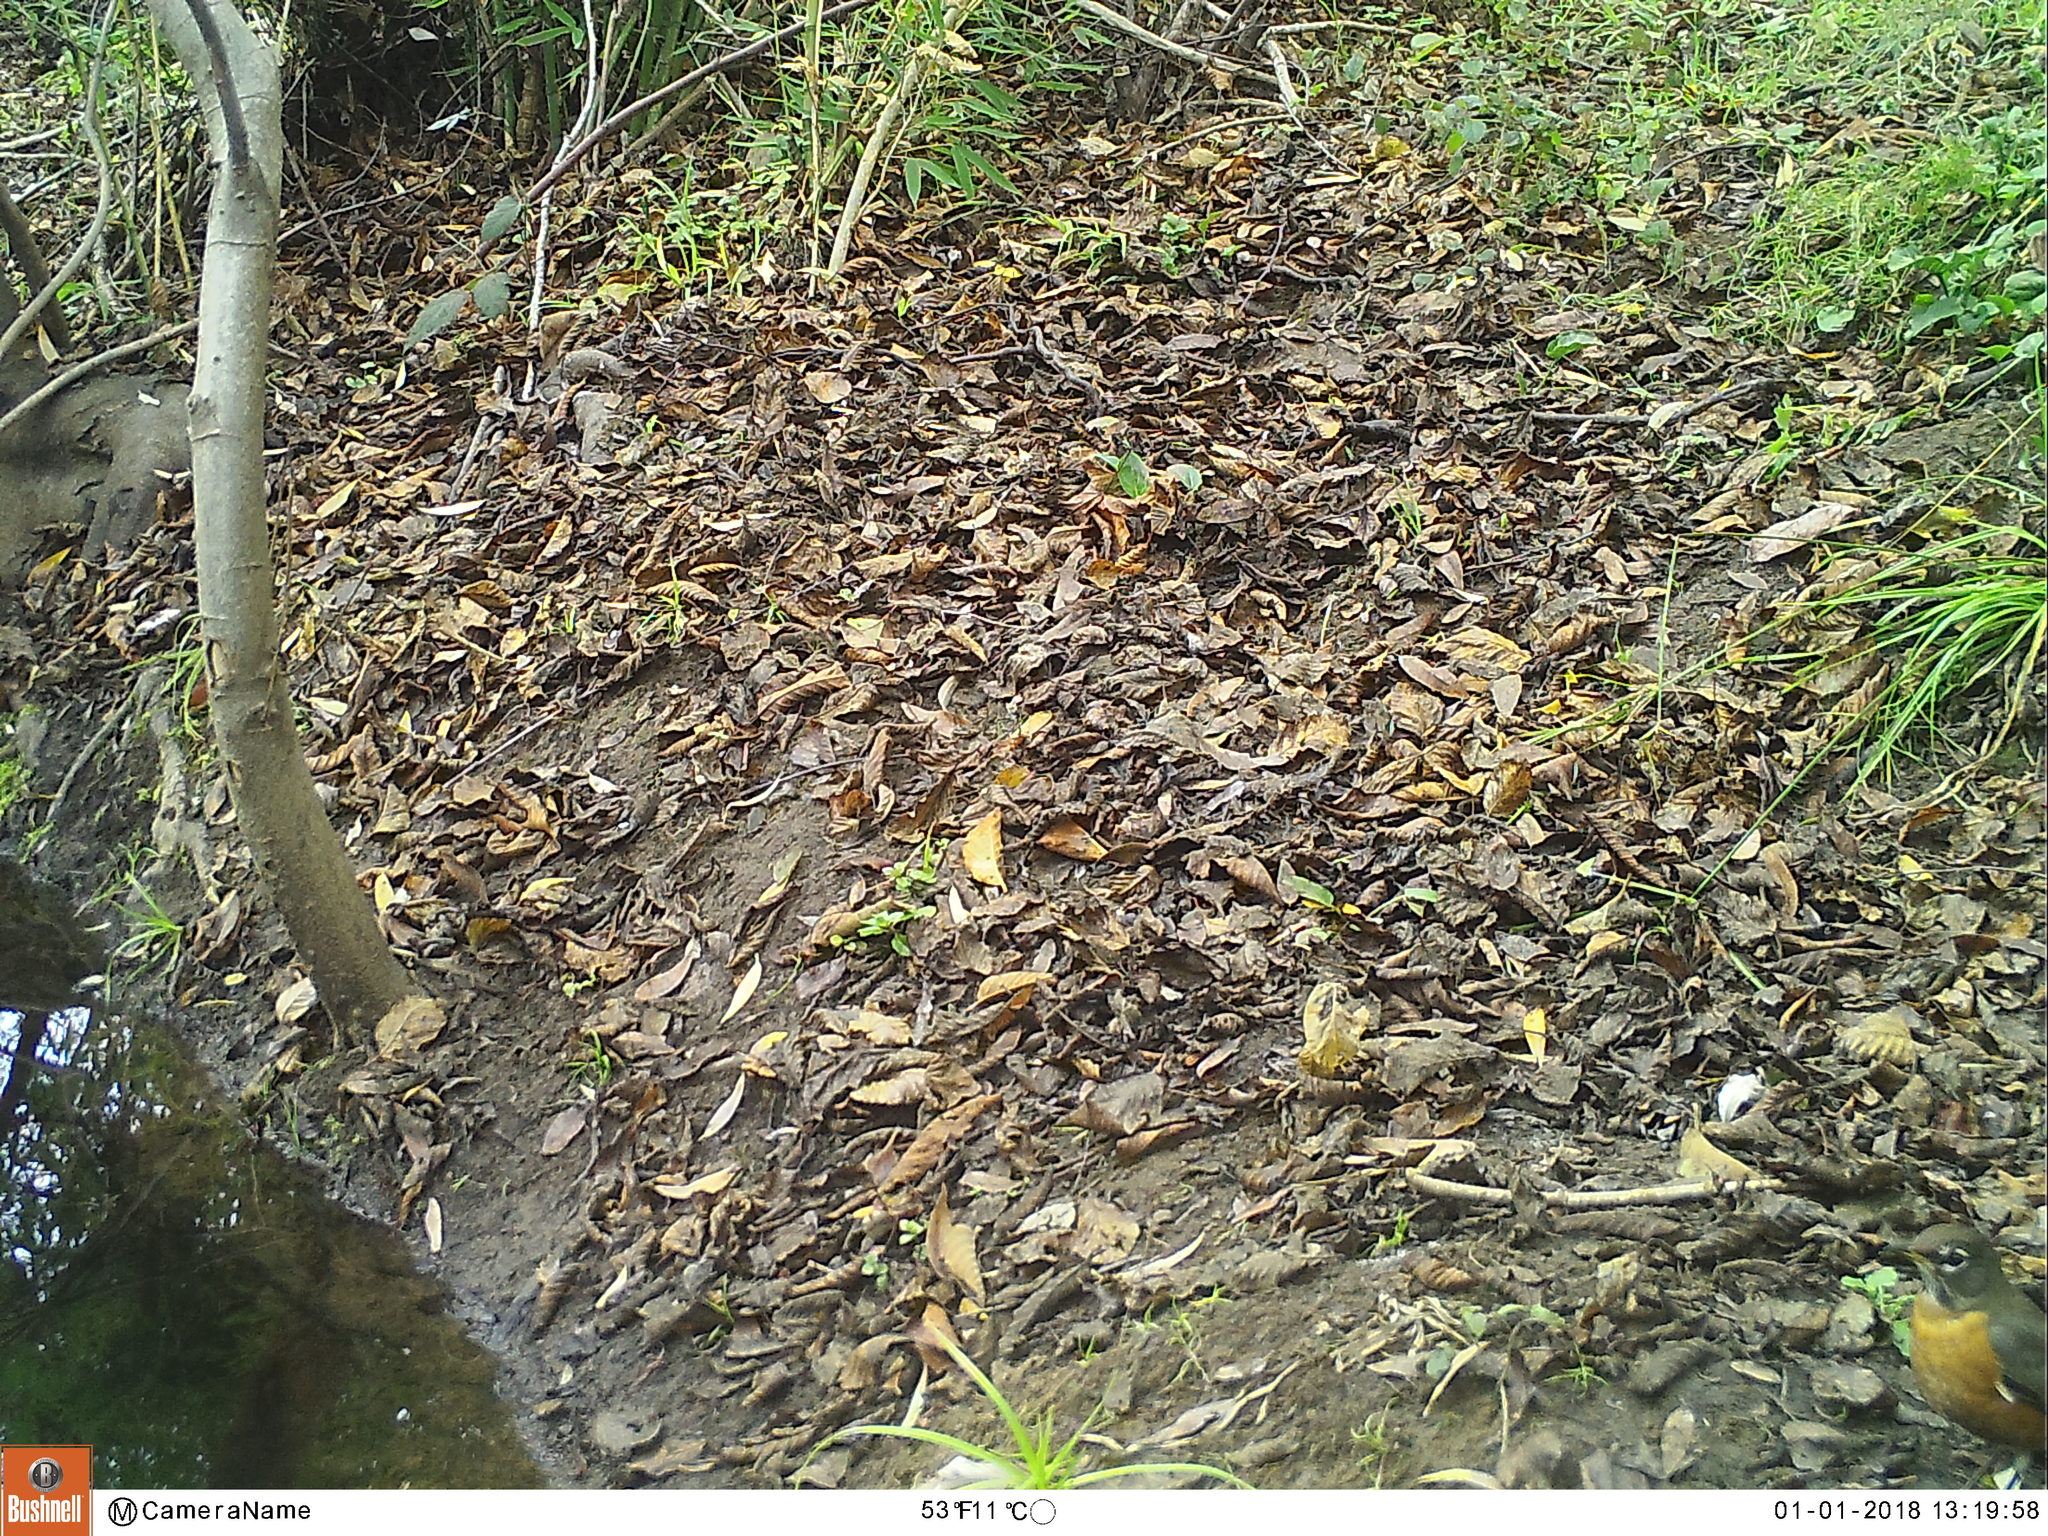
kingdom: Animalia
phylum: Chordata
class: Aves
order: Passeriformes
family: Turdidae
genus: Turdus
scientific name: Turdus migratorius
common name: American robin
